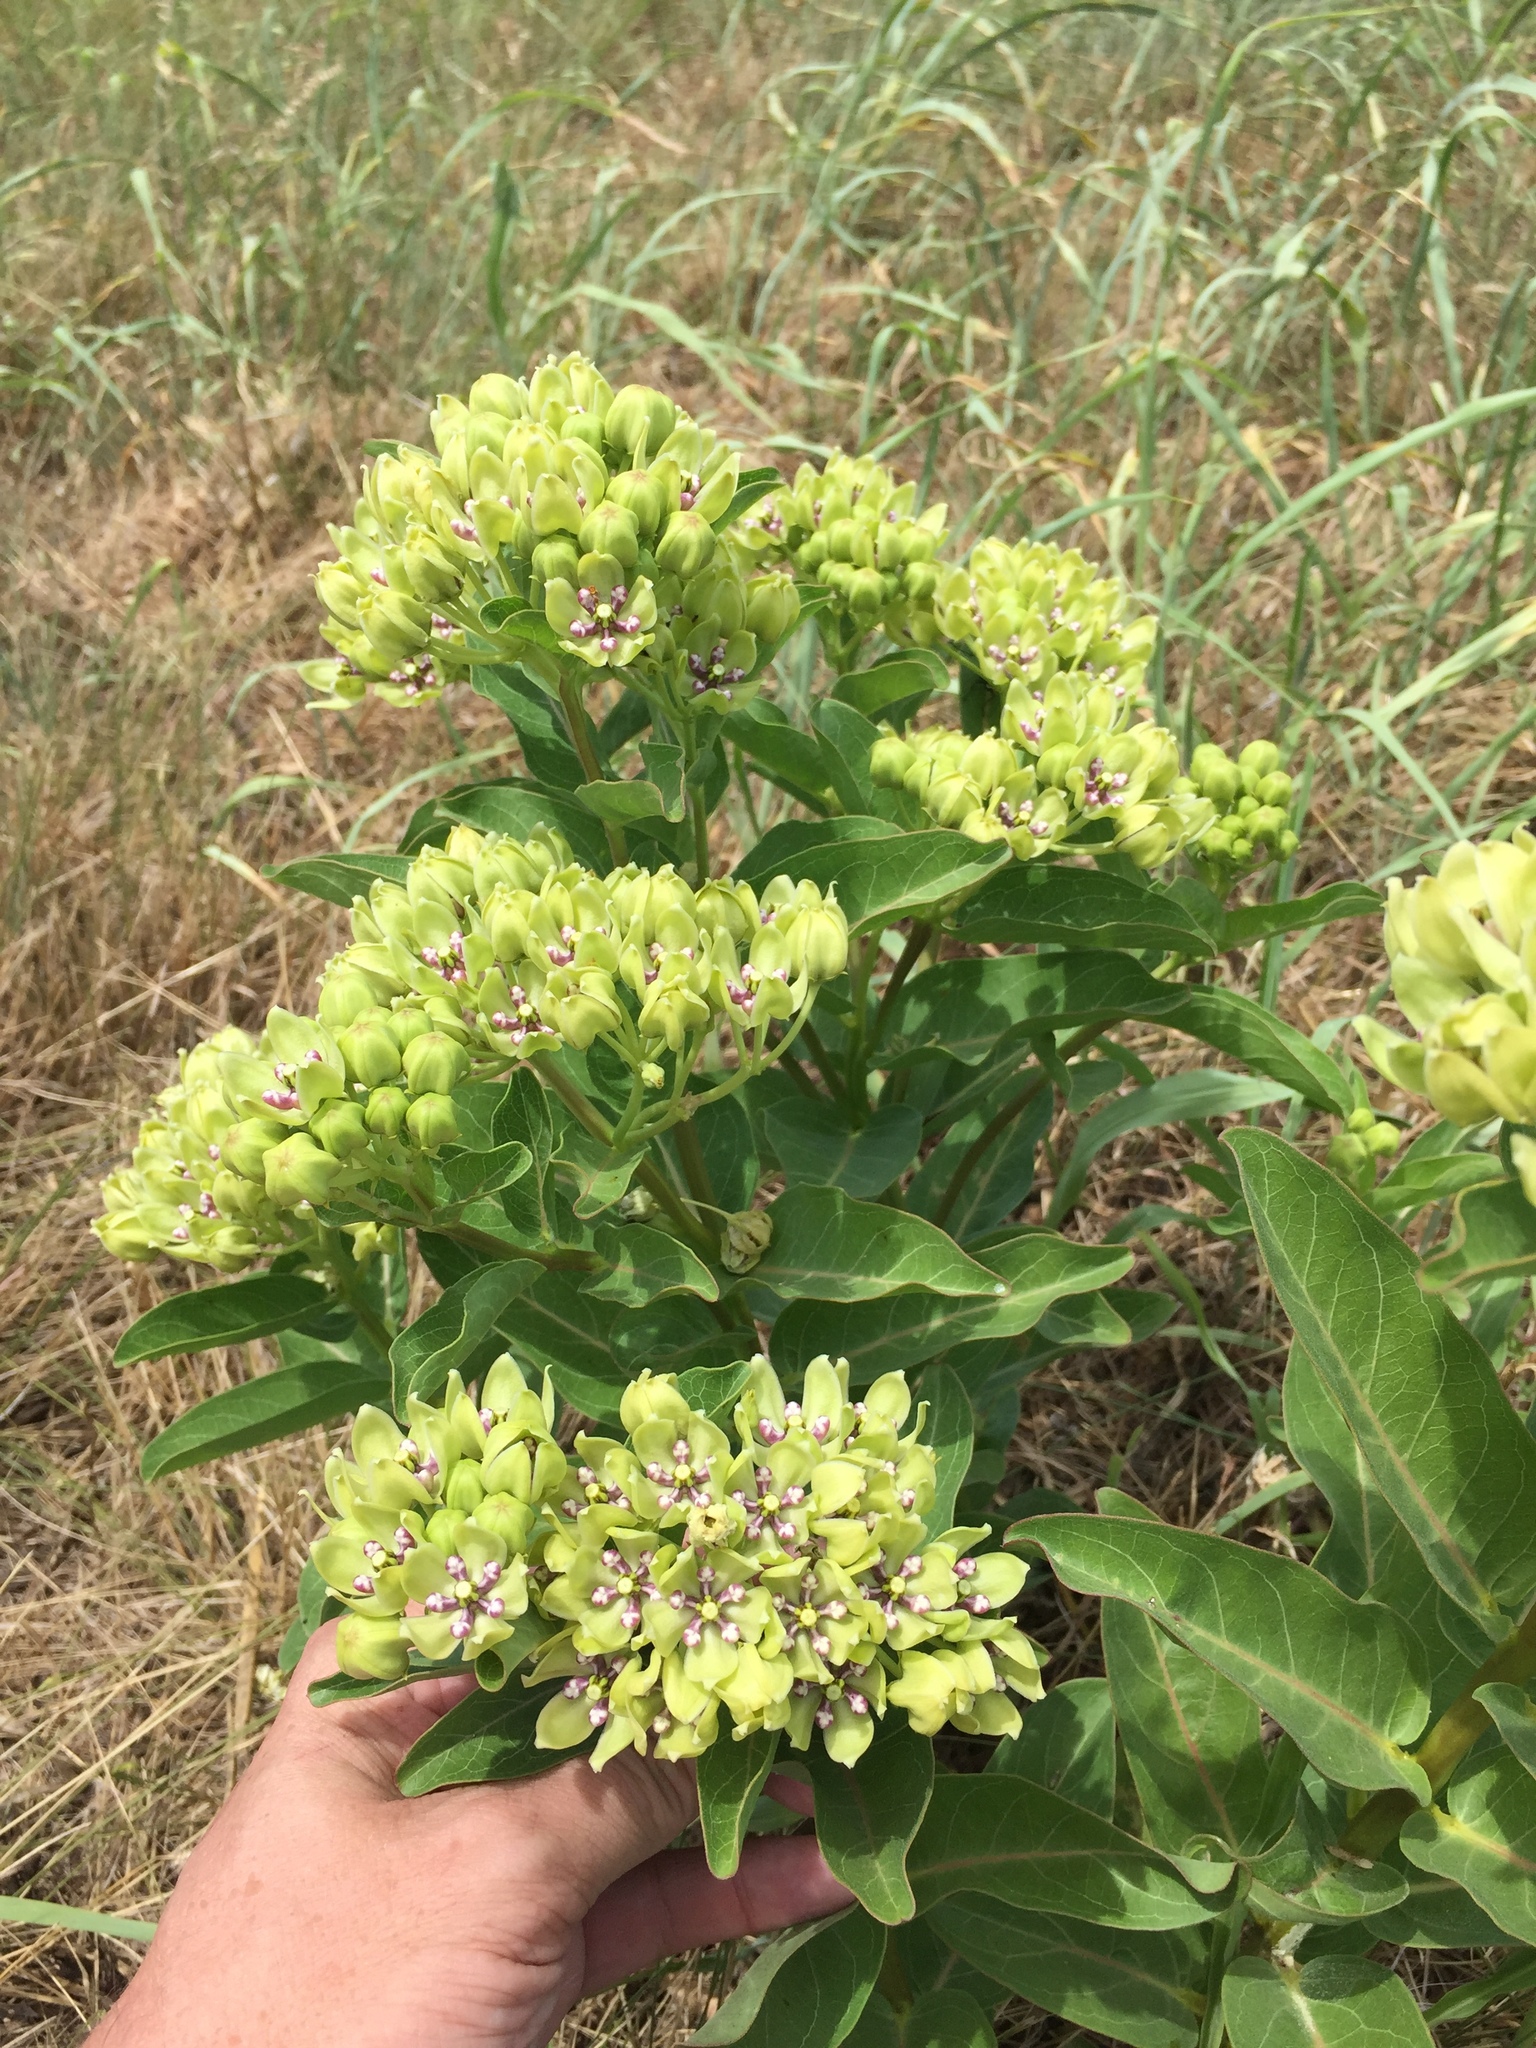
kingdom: Plantae
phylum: Tracheophyta
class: Magnoliopsida
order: Gentianales
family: Apocynaceae
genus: Asclepias
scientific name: Asclepias viridis
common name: Antelope-horns
